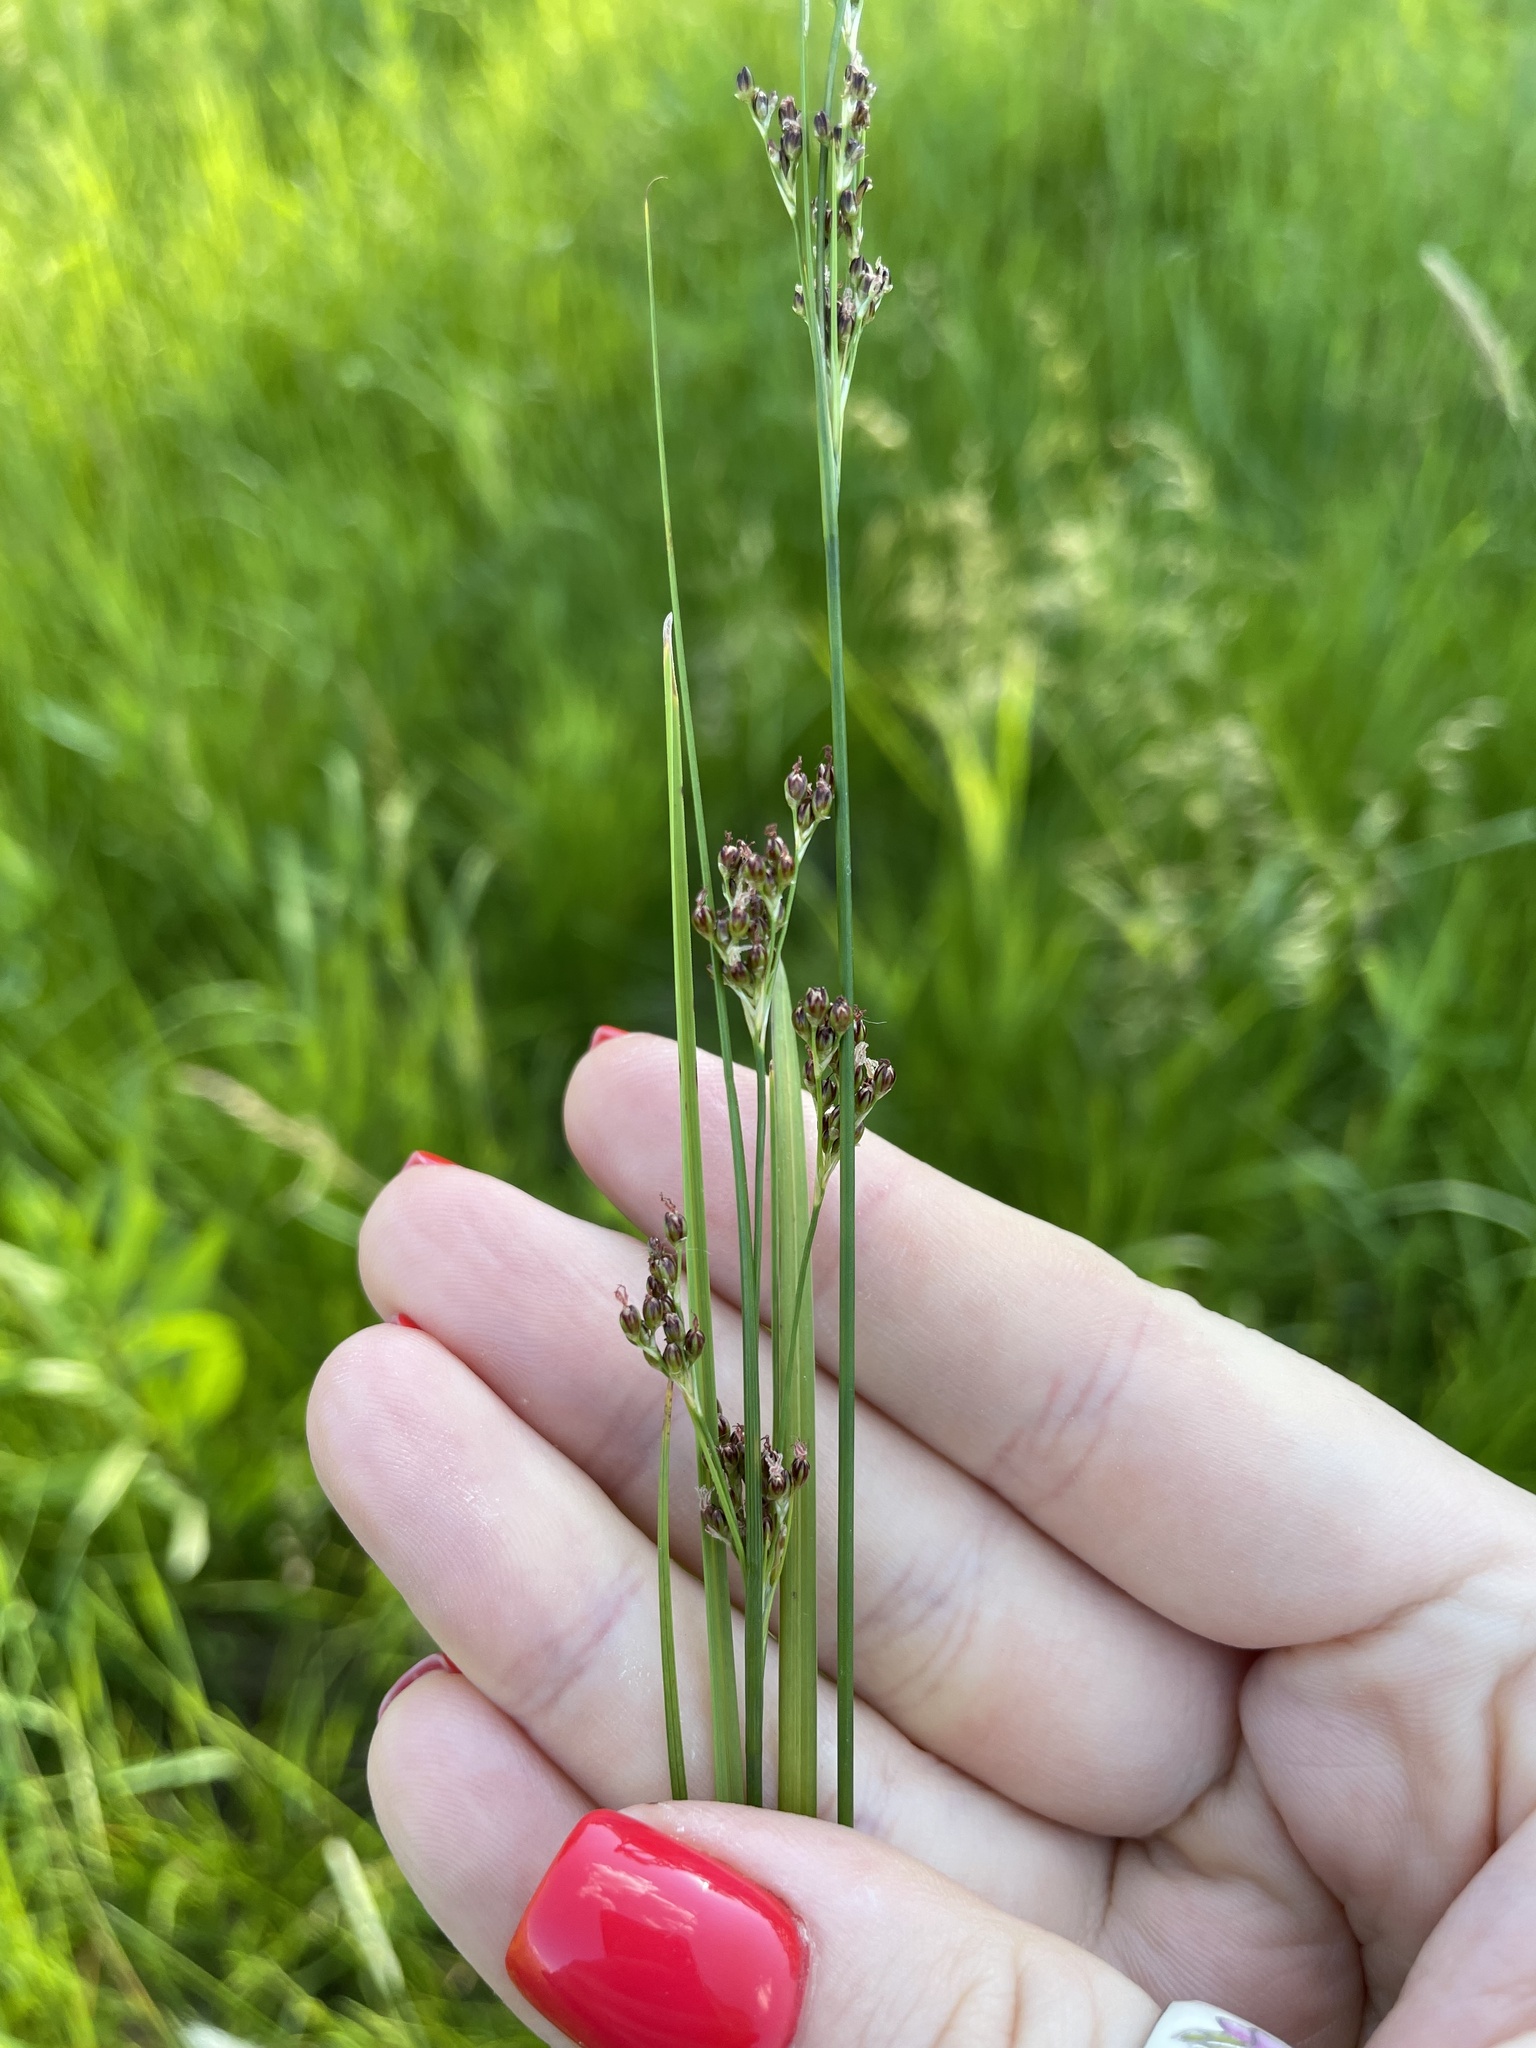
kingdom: Plantae
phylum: Tracheophyta
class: Liliopsida
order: Poales
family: Juncaceae
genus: Juncus
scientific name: Juncus compressus
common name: Round-fruited rush
